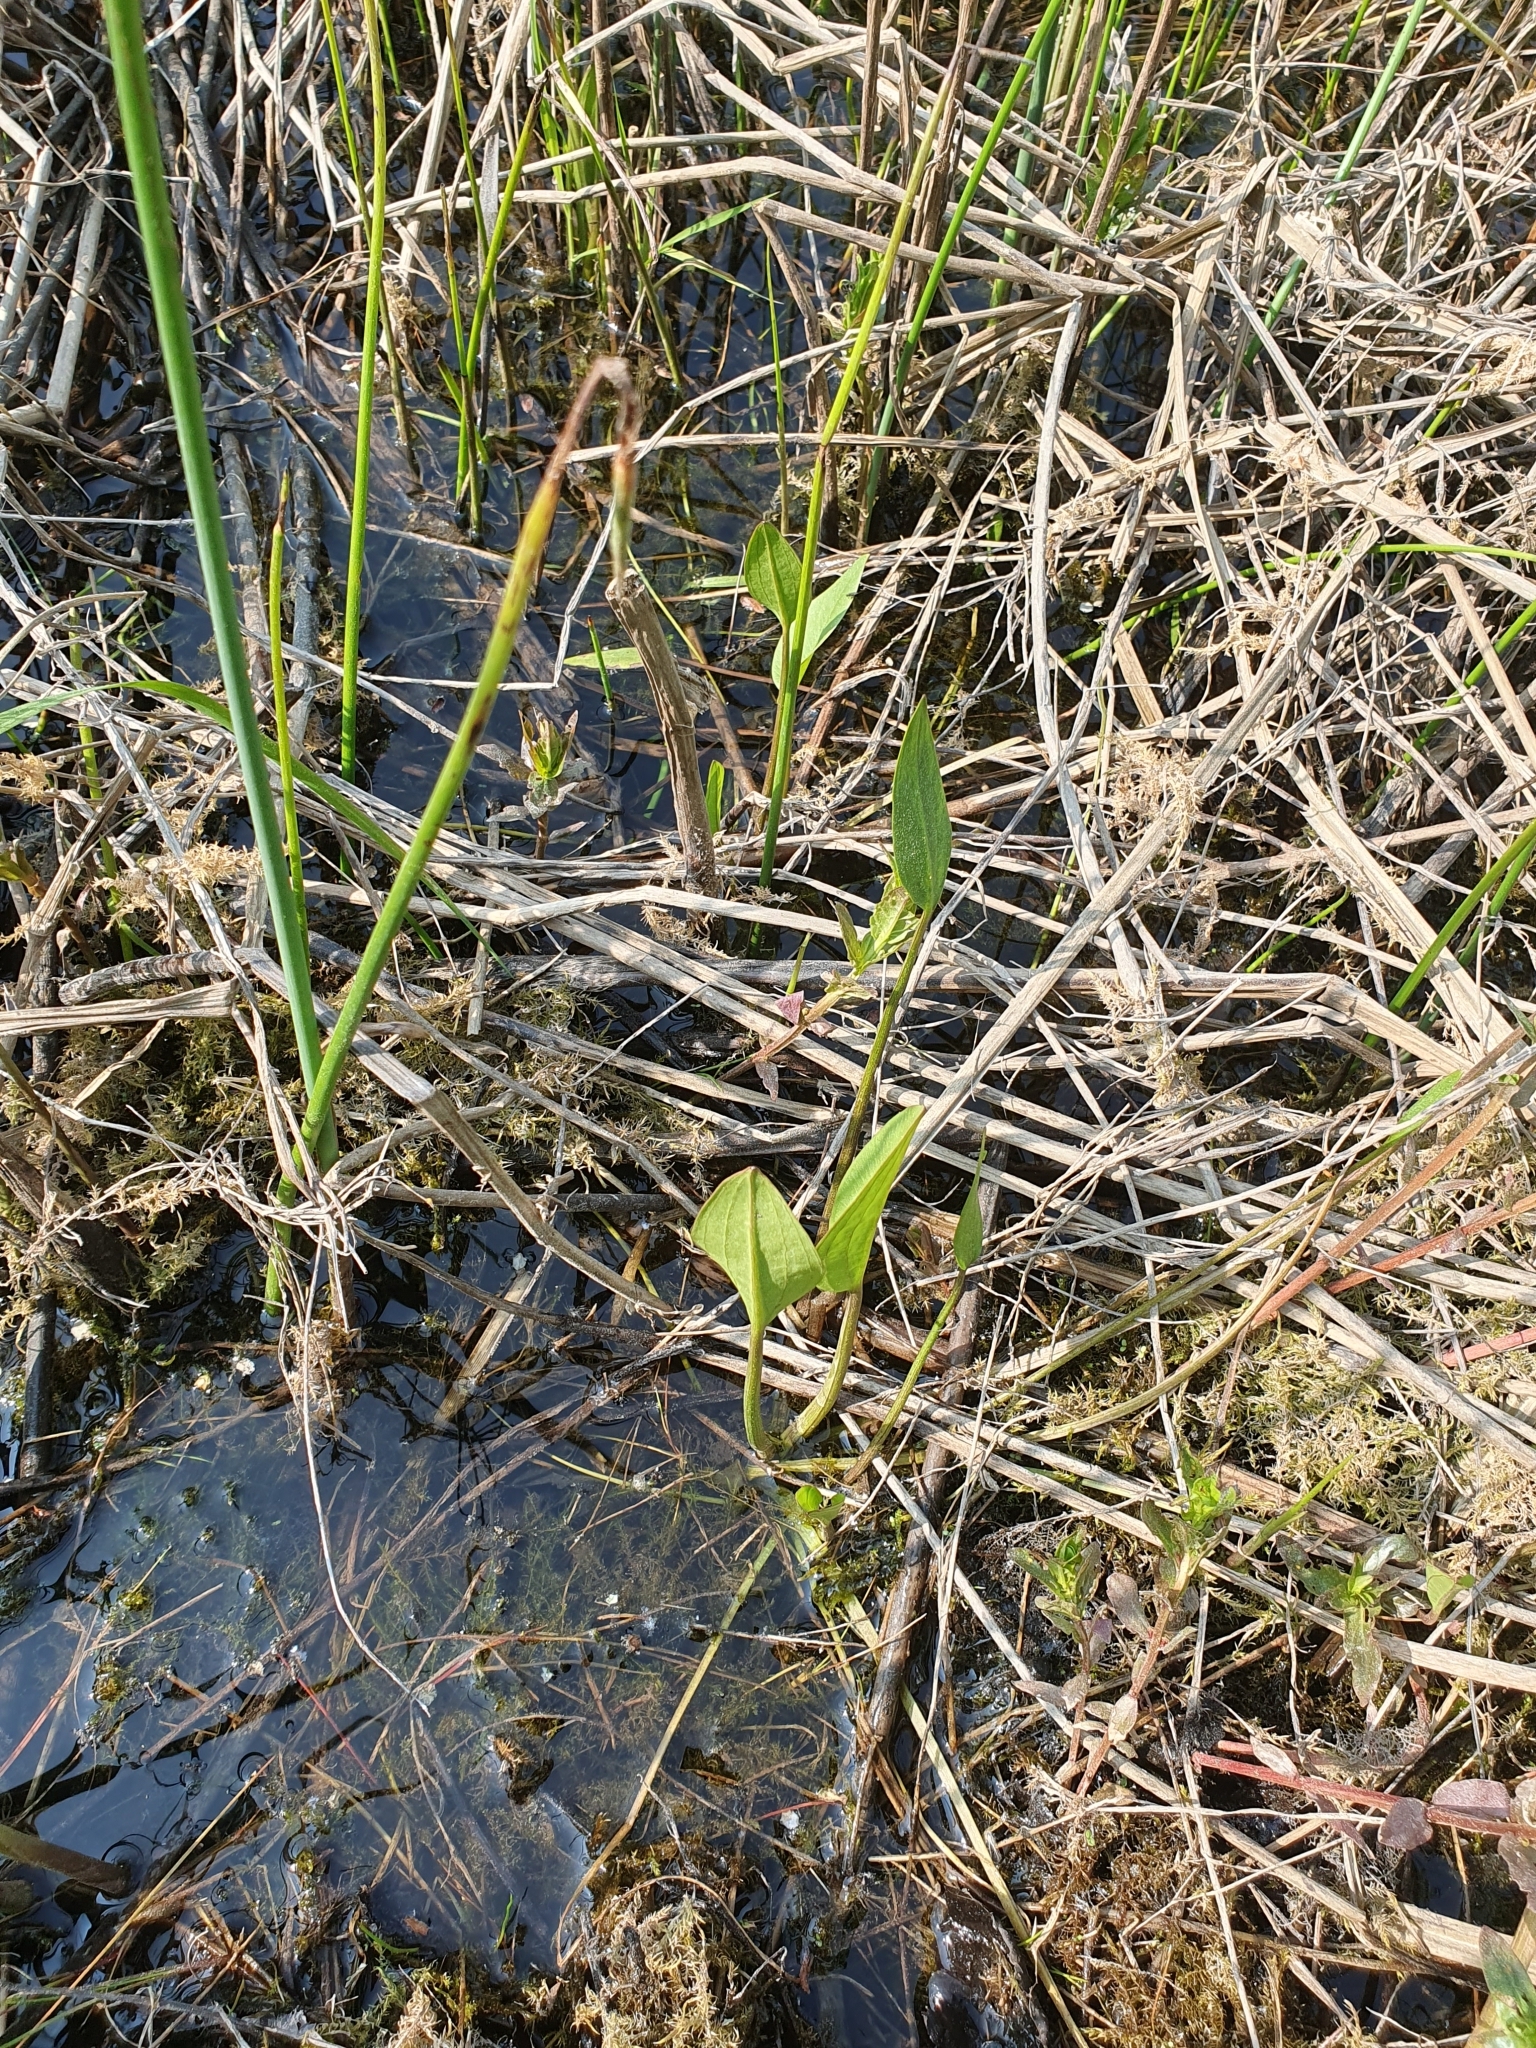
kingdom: Plantae
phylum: Tracheophyta
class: Liliopsida
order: Alismatales
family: Alismataceae
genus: Alisma
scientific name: Alisma plantago-aquatica
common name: Water-plantain
